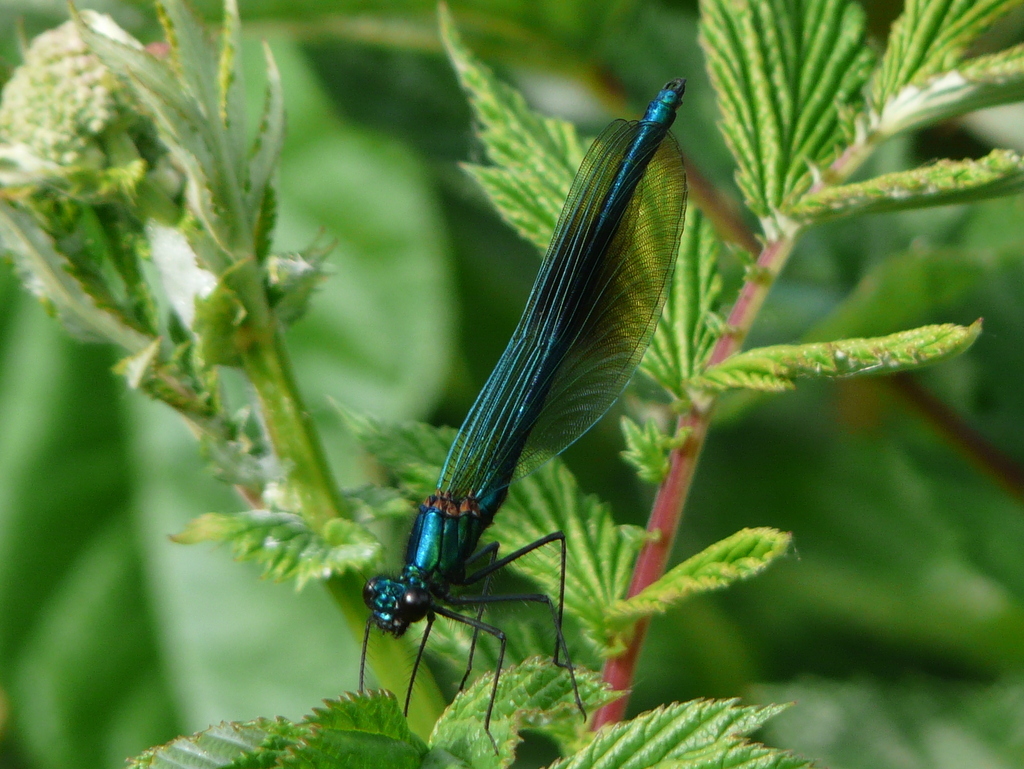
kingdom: Animalia
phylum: Arthropoda
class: Insecta
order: Odonata
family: Calopterygidae
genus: Calopteryx
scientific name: Calopteryx splendens
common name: Banded demoiselle
